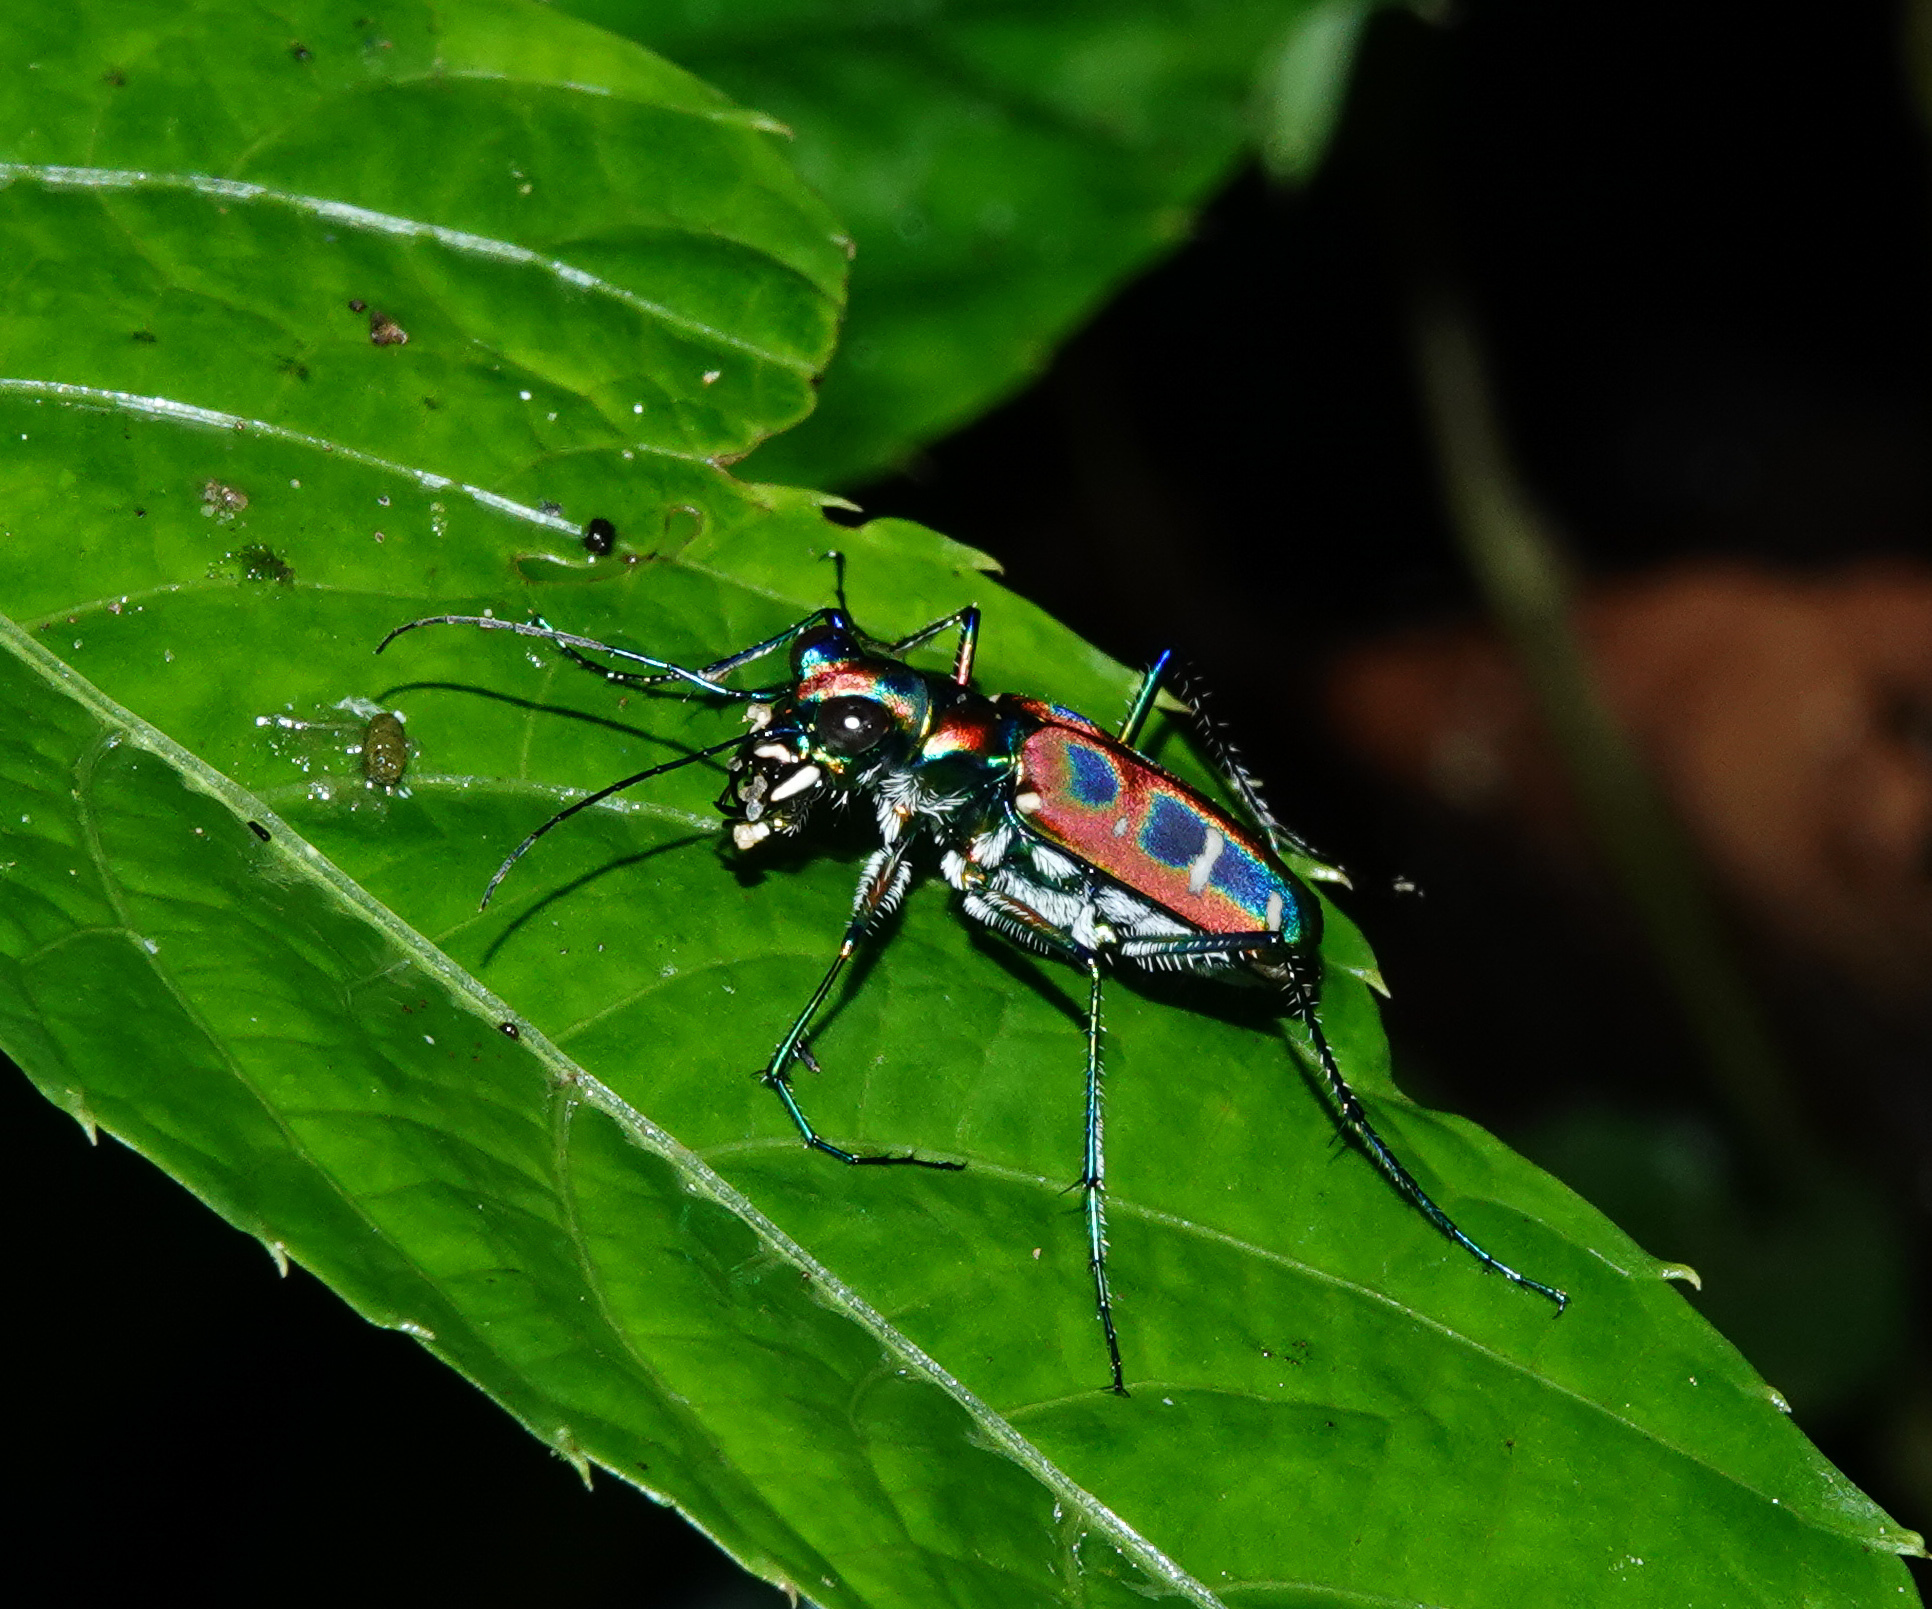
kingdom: Animalia
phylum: Arthropoda
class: Insecta
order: Coleoptera
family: Carabidae
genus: Cicindela
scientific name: Cicindela barmanica
